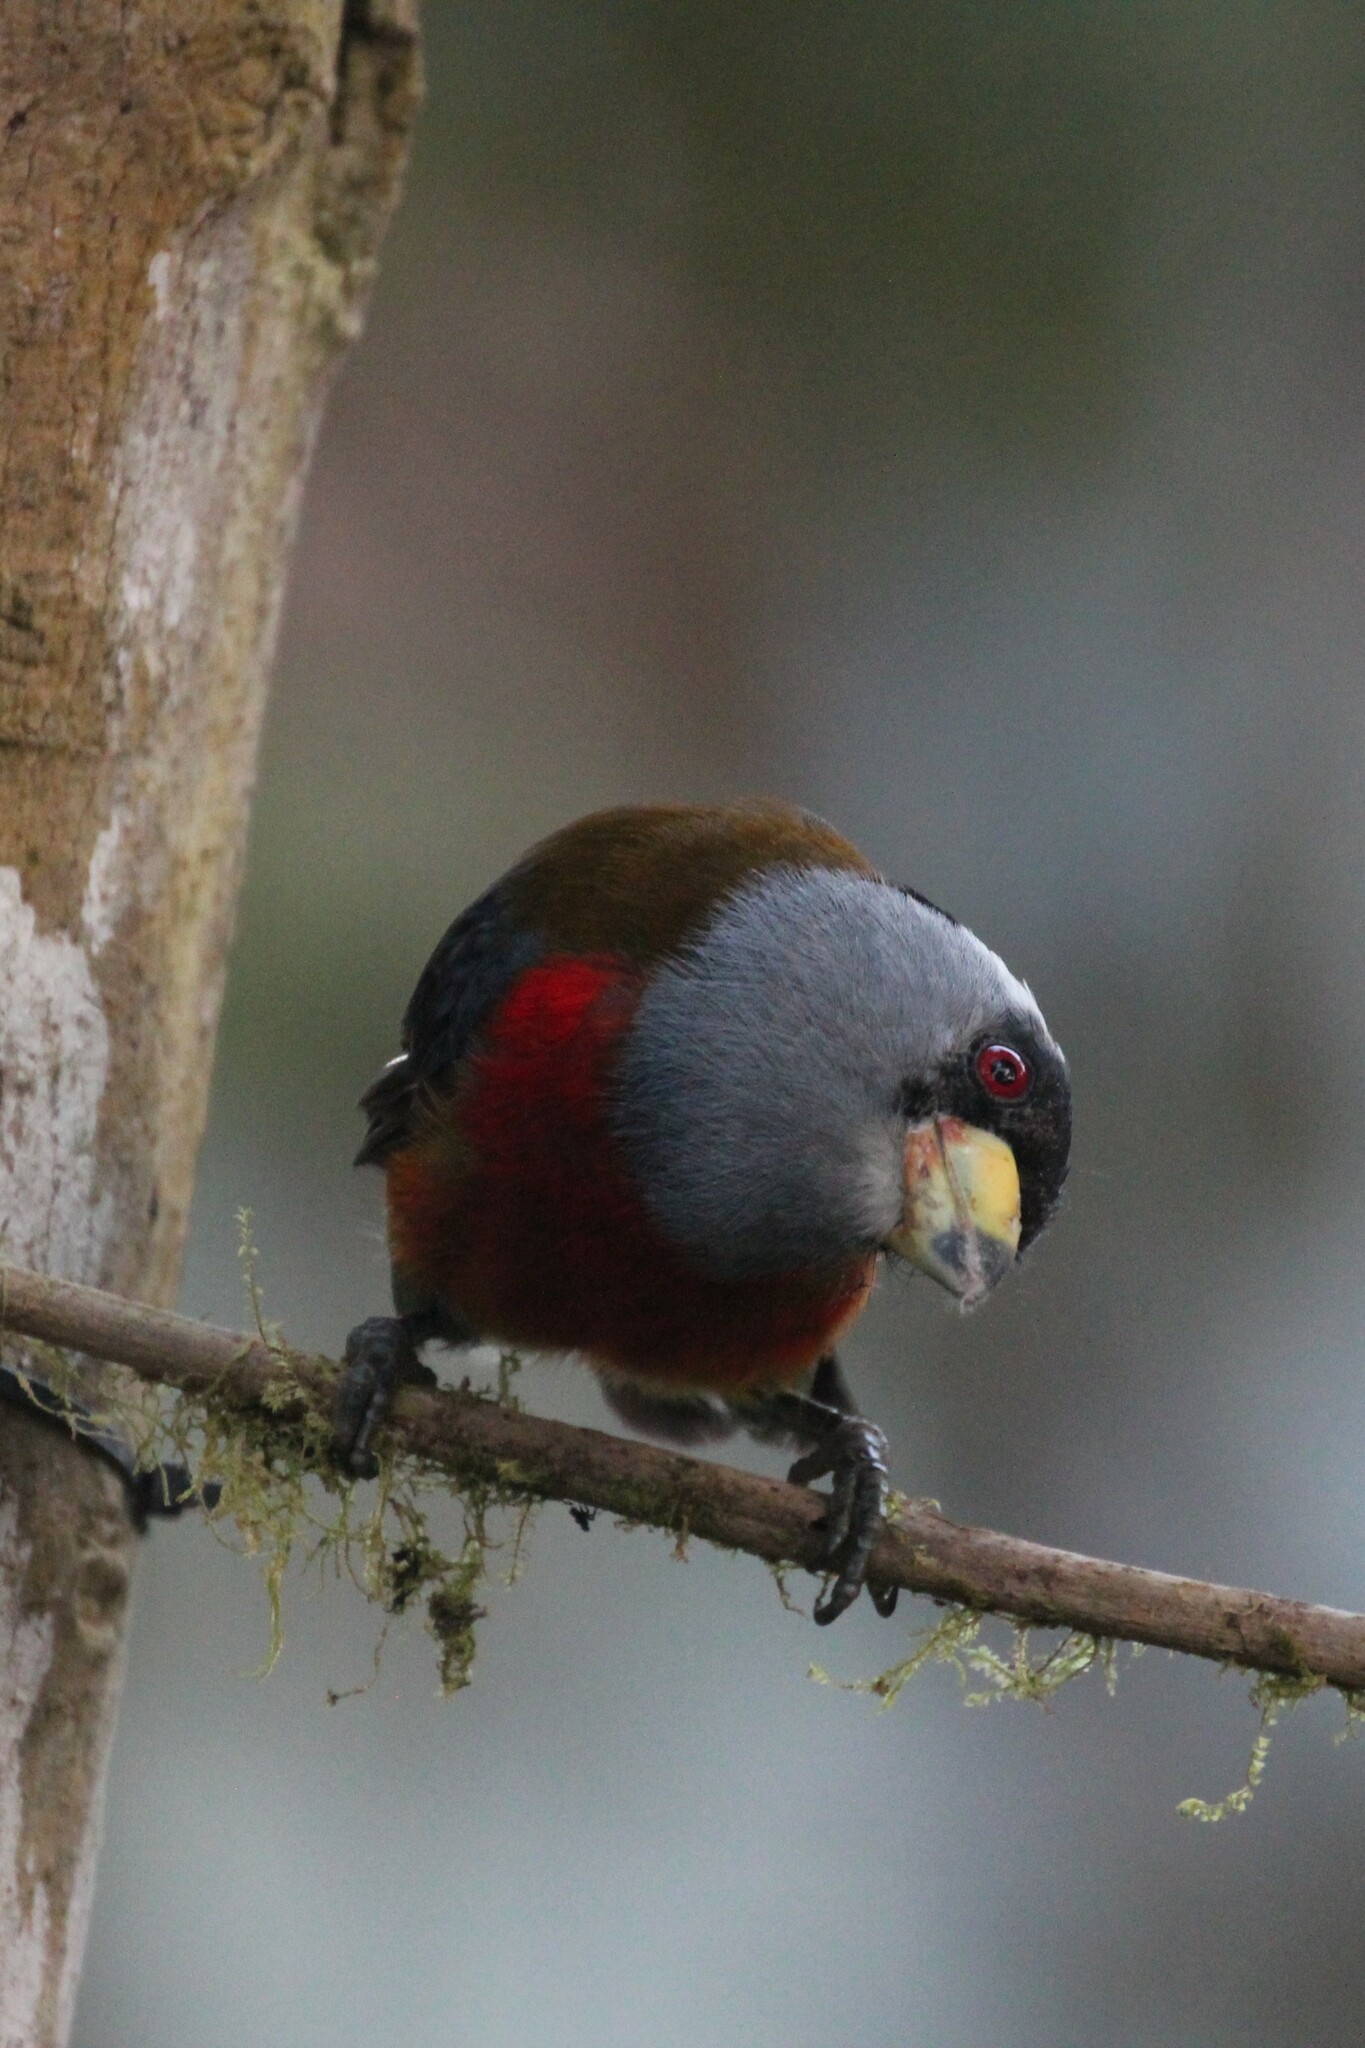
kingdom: Animalia
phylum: Chordata
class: Aves
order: Piciformes
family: Semnornithidae
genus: Semnornis
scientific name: Semnornis ramphastinus
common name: Toucan barbet
